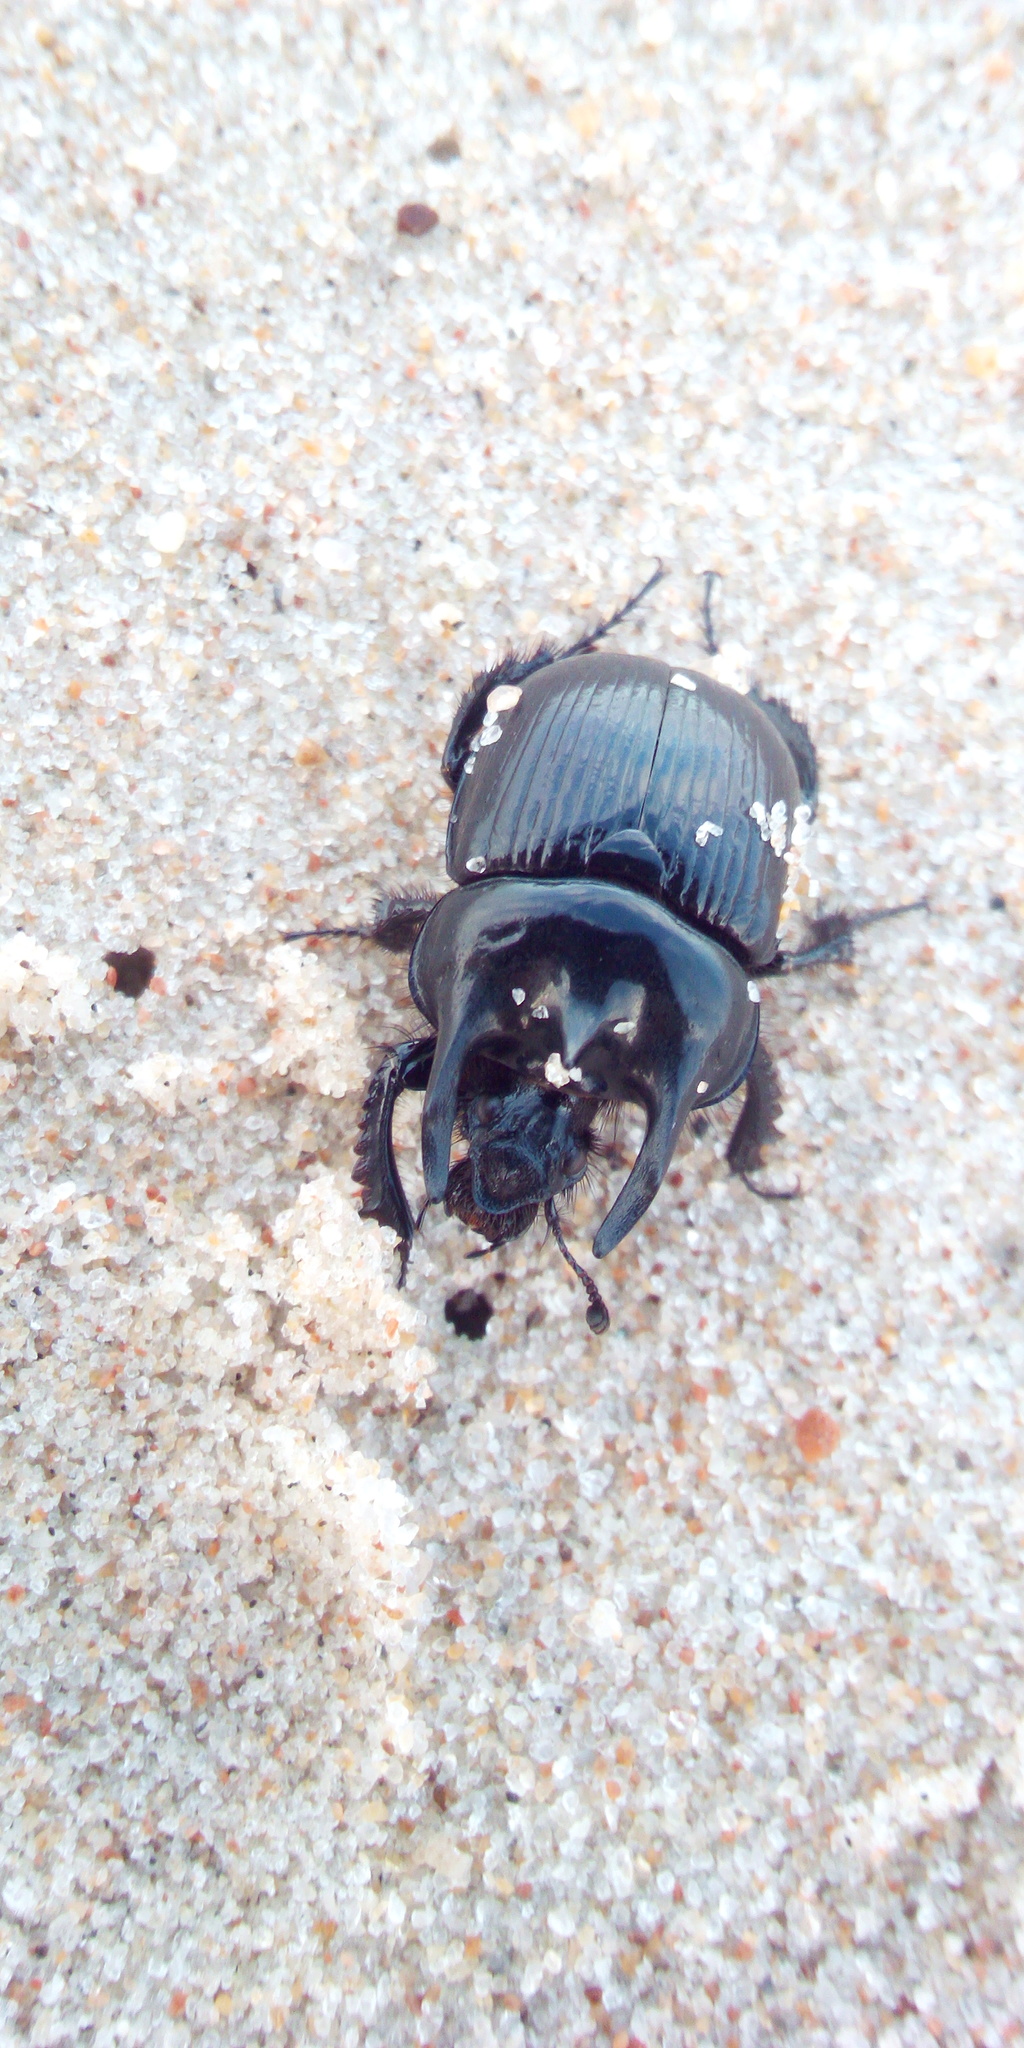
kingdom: Animalia
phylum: Arthropoda
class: Insecta
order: Coleoptera
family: Geotrupidae
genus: Typhaeus
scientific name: Typhaeus typhoeus
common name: Minotaur beetle
